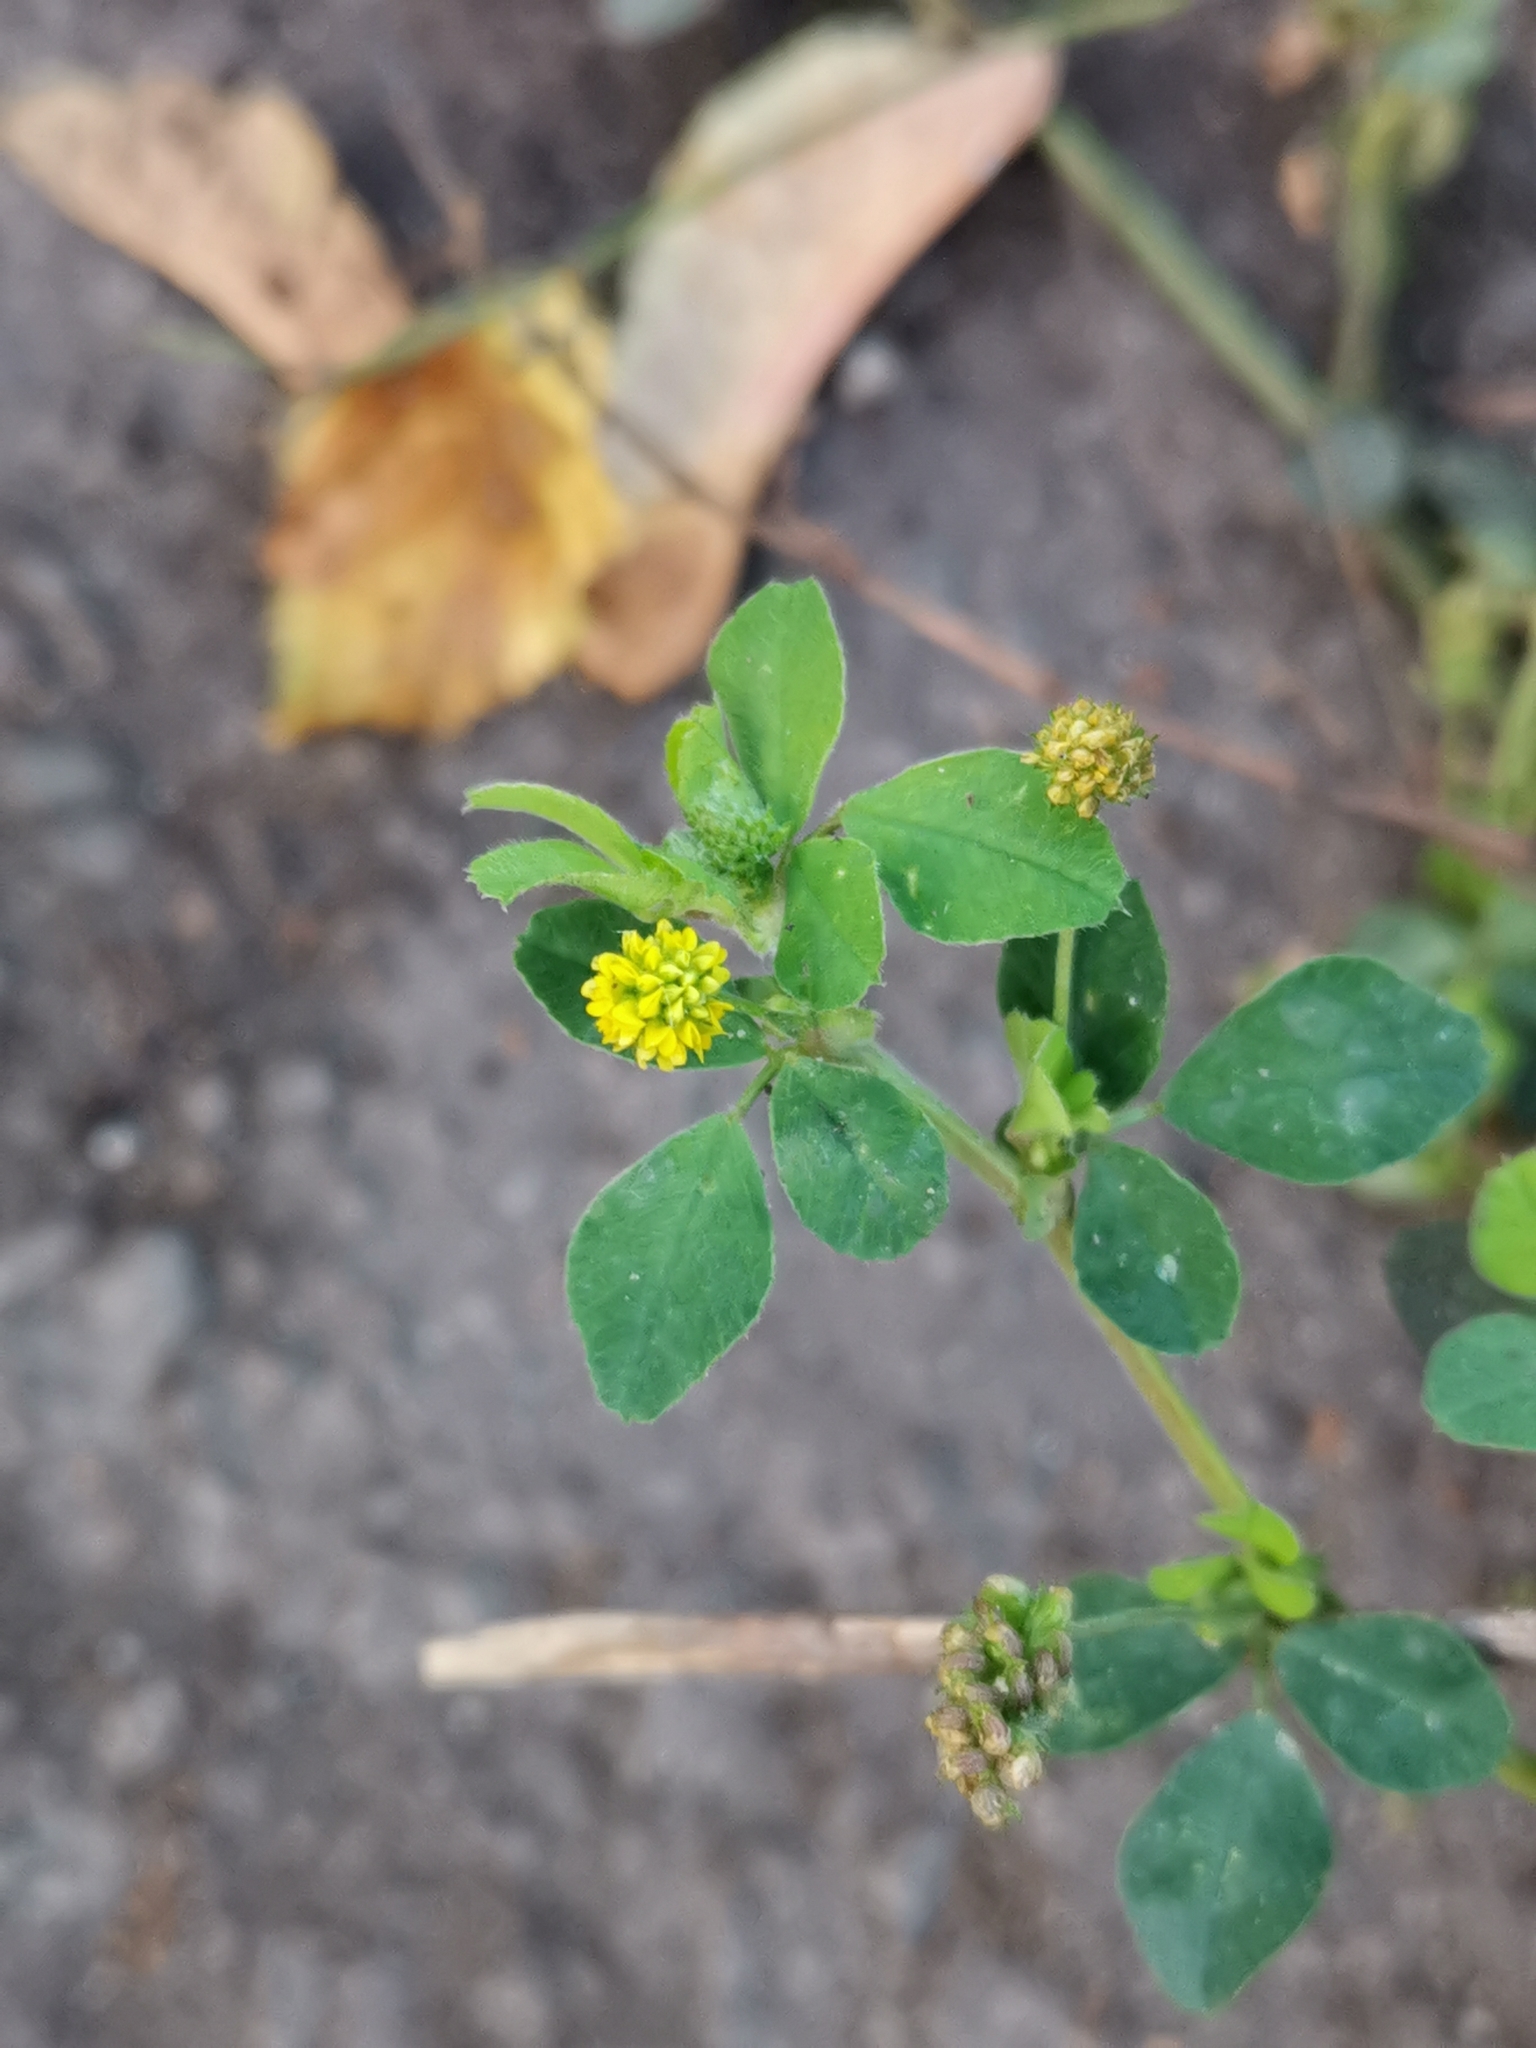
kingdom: Plantae
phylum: Tracheophyta
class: Magnoliopsida
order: Fabales
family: Fabaceae
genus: Medicago
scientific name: Medicago lupulina
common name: Black medick
